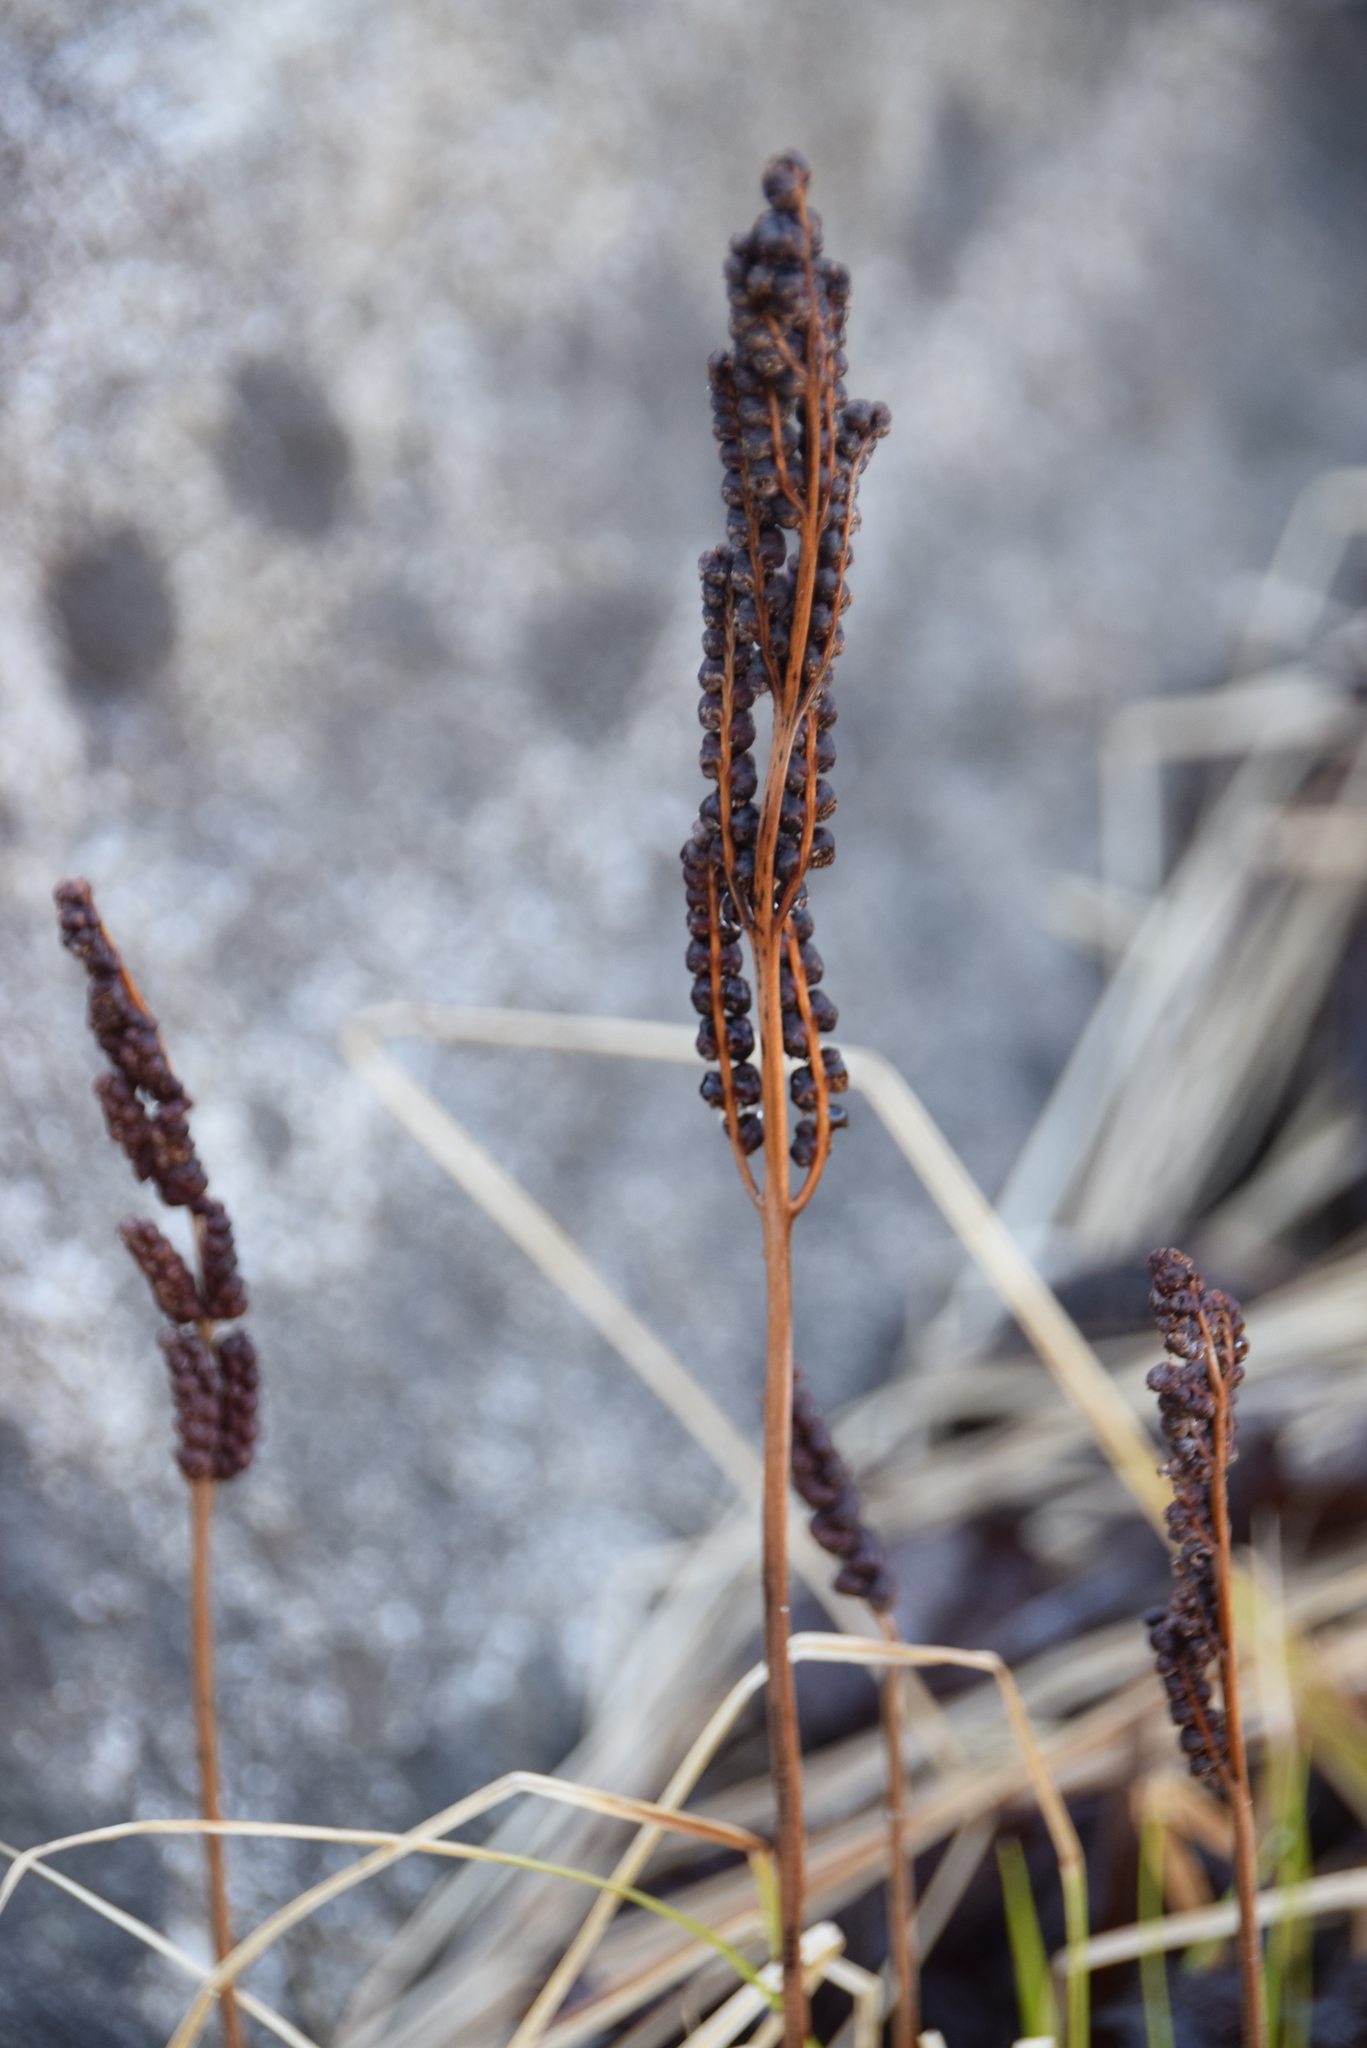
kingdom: Plantae
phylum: Tracheophyta
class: Polypodiopsida
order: Polypodiales
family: Onocleaceae
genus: Onoclea
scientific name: Onoclea sensibilis
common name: Sensitive fern
